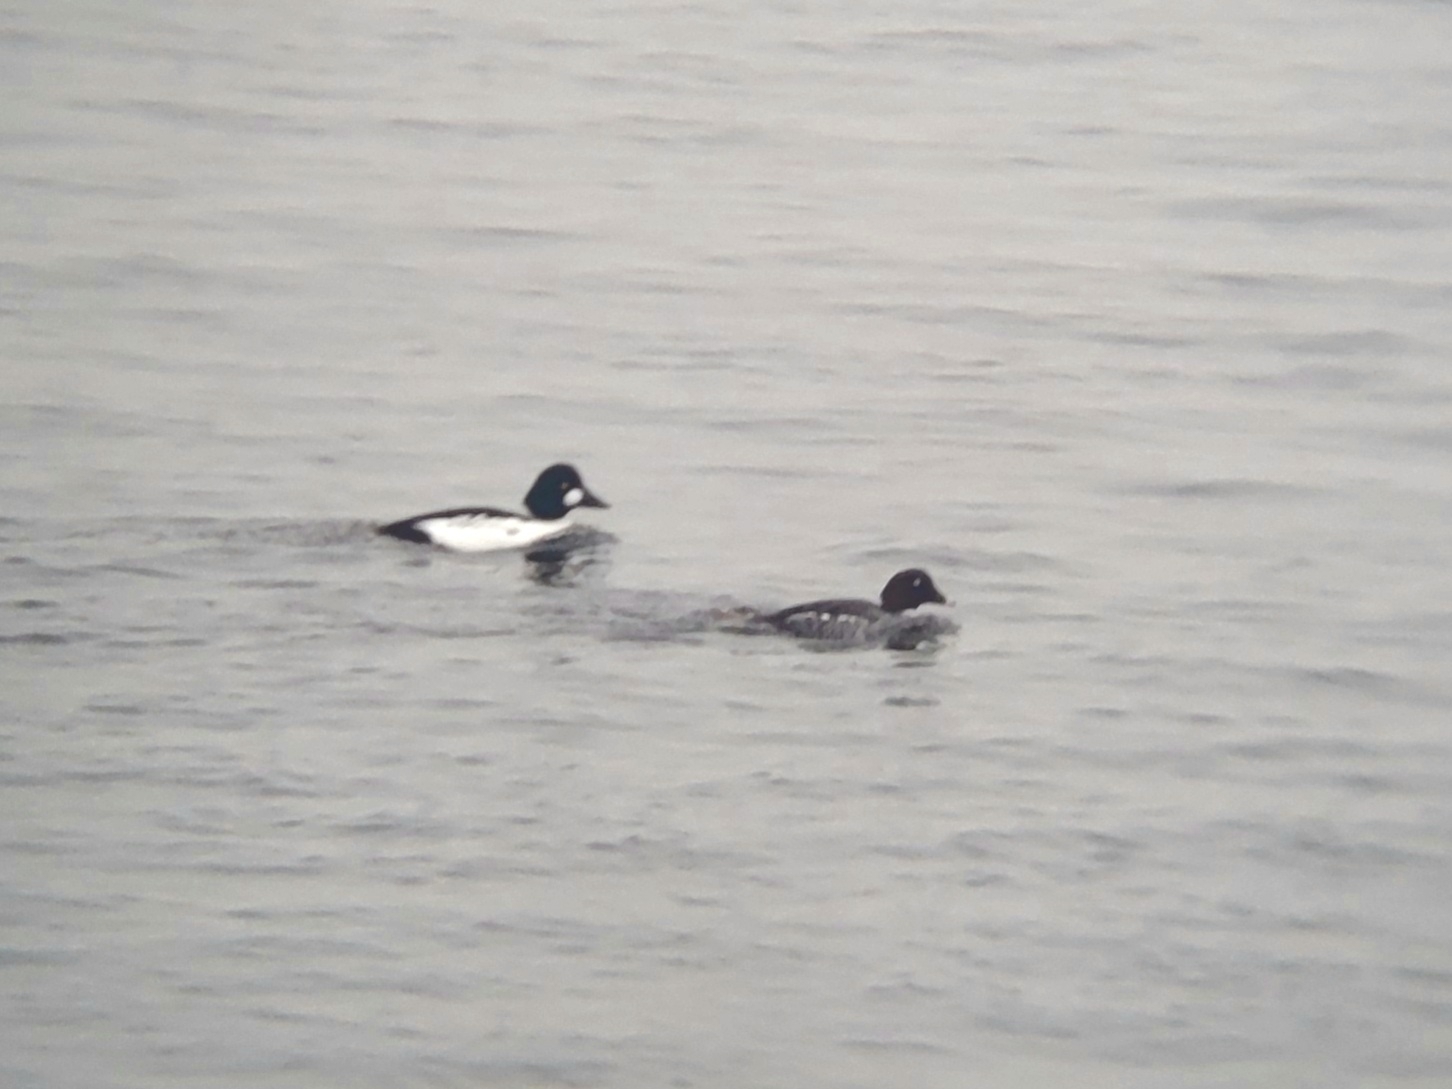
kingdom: Animalia
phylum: Chordata
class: Aves
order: Anseriformes
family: Anatidae
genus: Bucephala
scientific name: Bucephala clangula
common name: Common goldeneye
